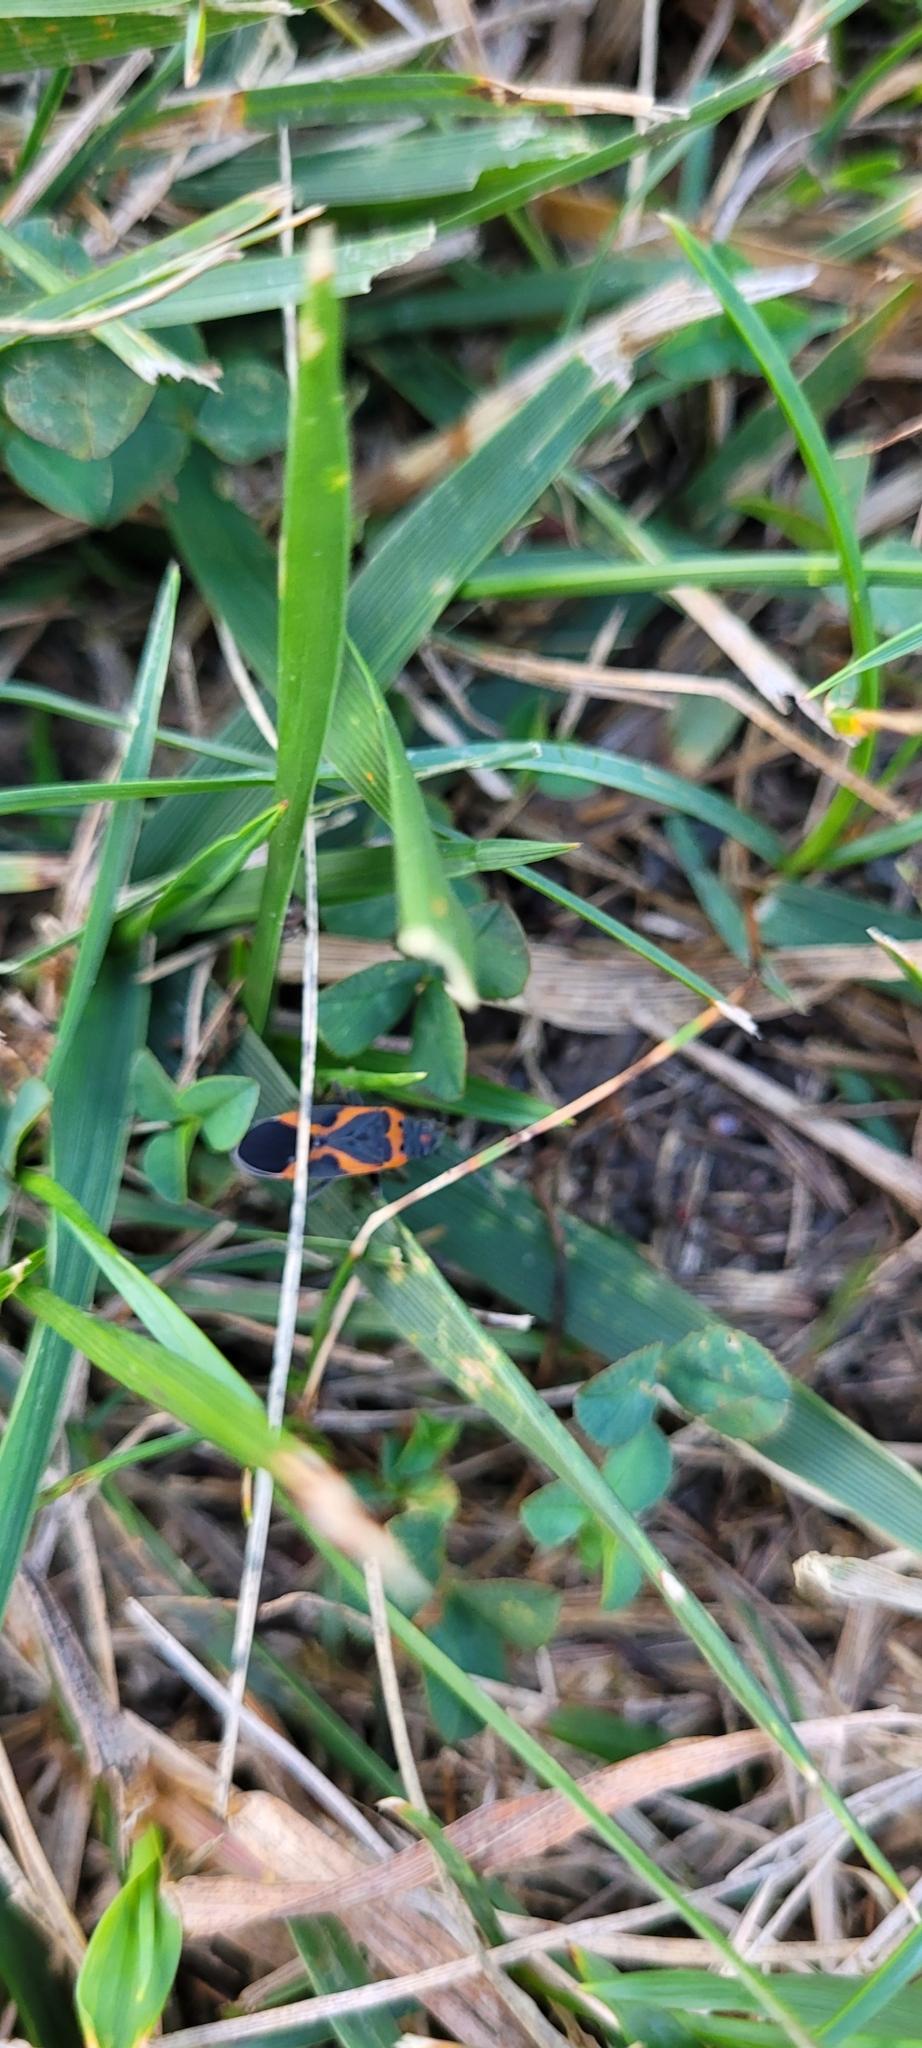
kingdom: Animalia
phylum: Arthropoda
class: Insecta
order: Hemiptera
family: Lygaeidae
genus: Lygaeus
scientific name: Lygaeus kalmii
